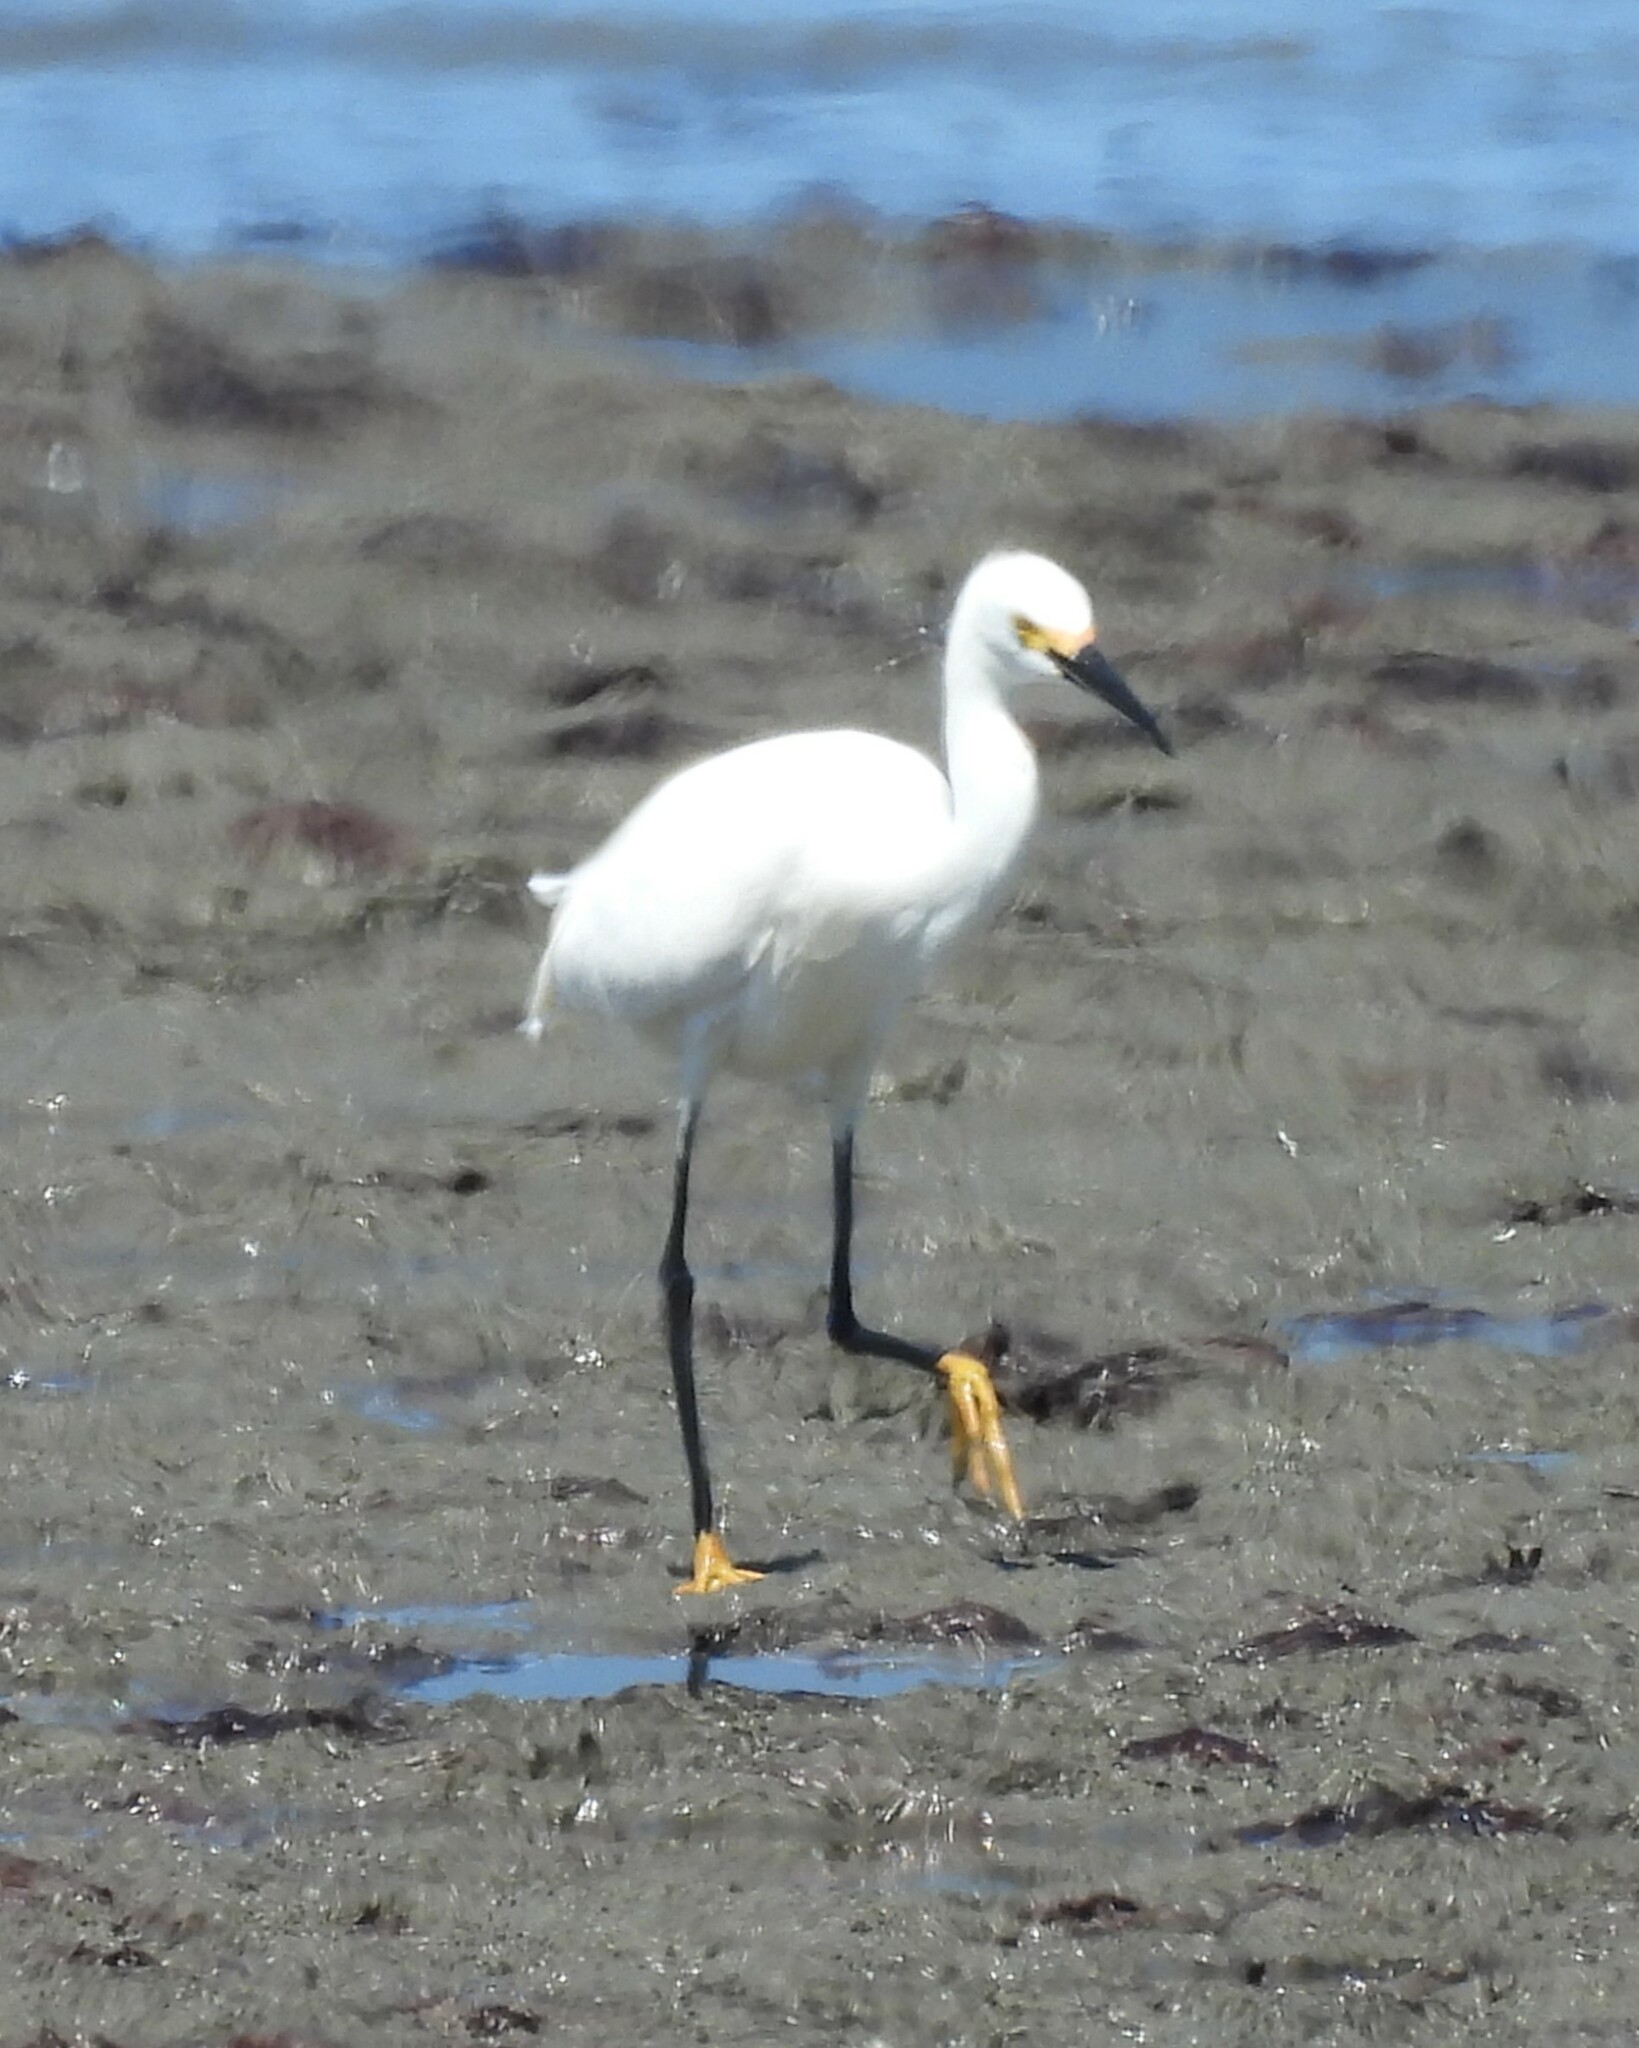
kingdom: Animalia
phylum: Chordata
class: Aves
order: Pelecaniformes
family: Ardeidae
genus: Egretta
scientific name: Egretta thula
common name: Snowy egret
